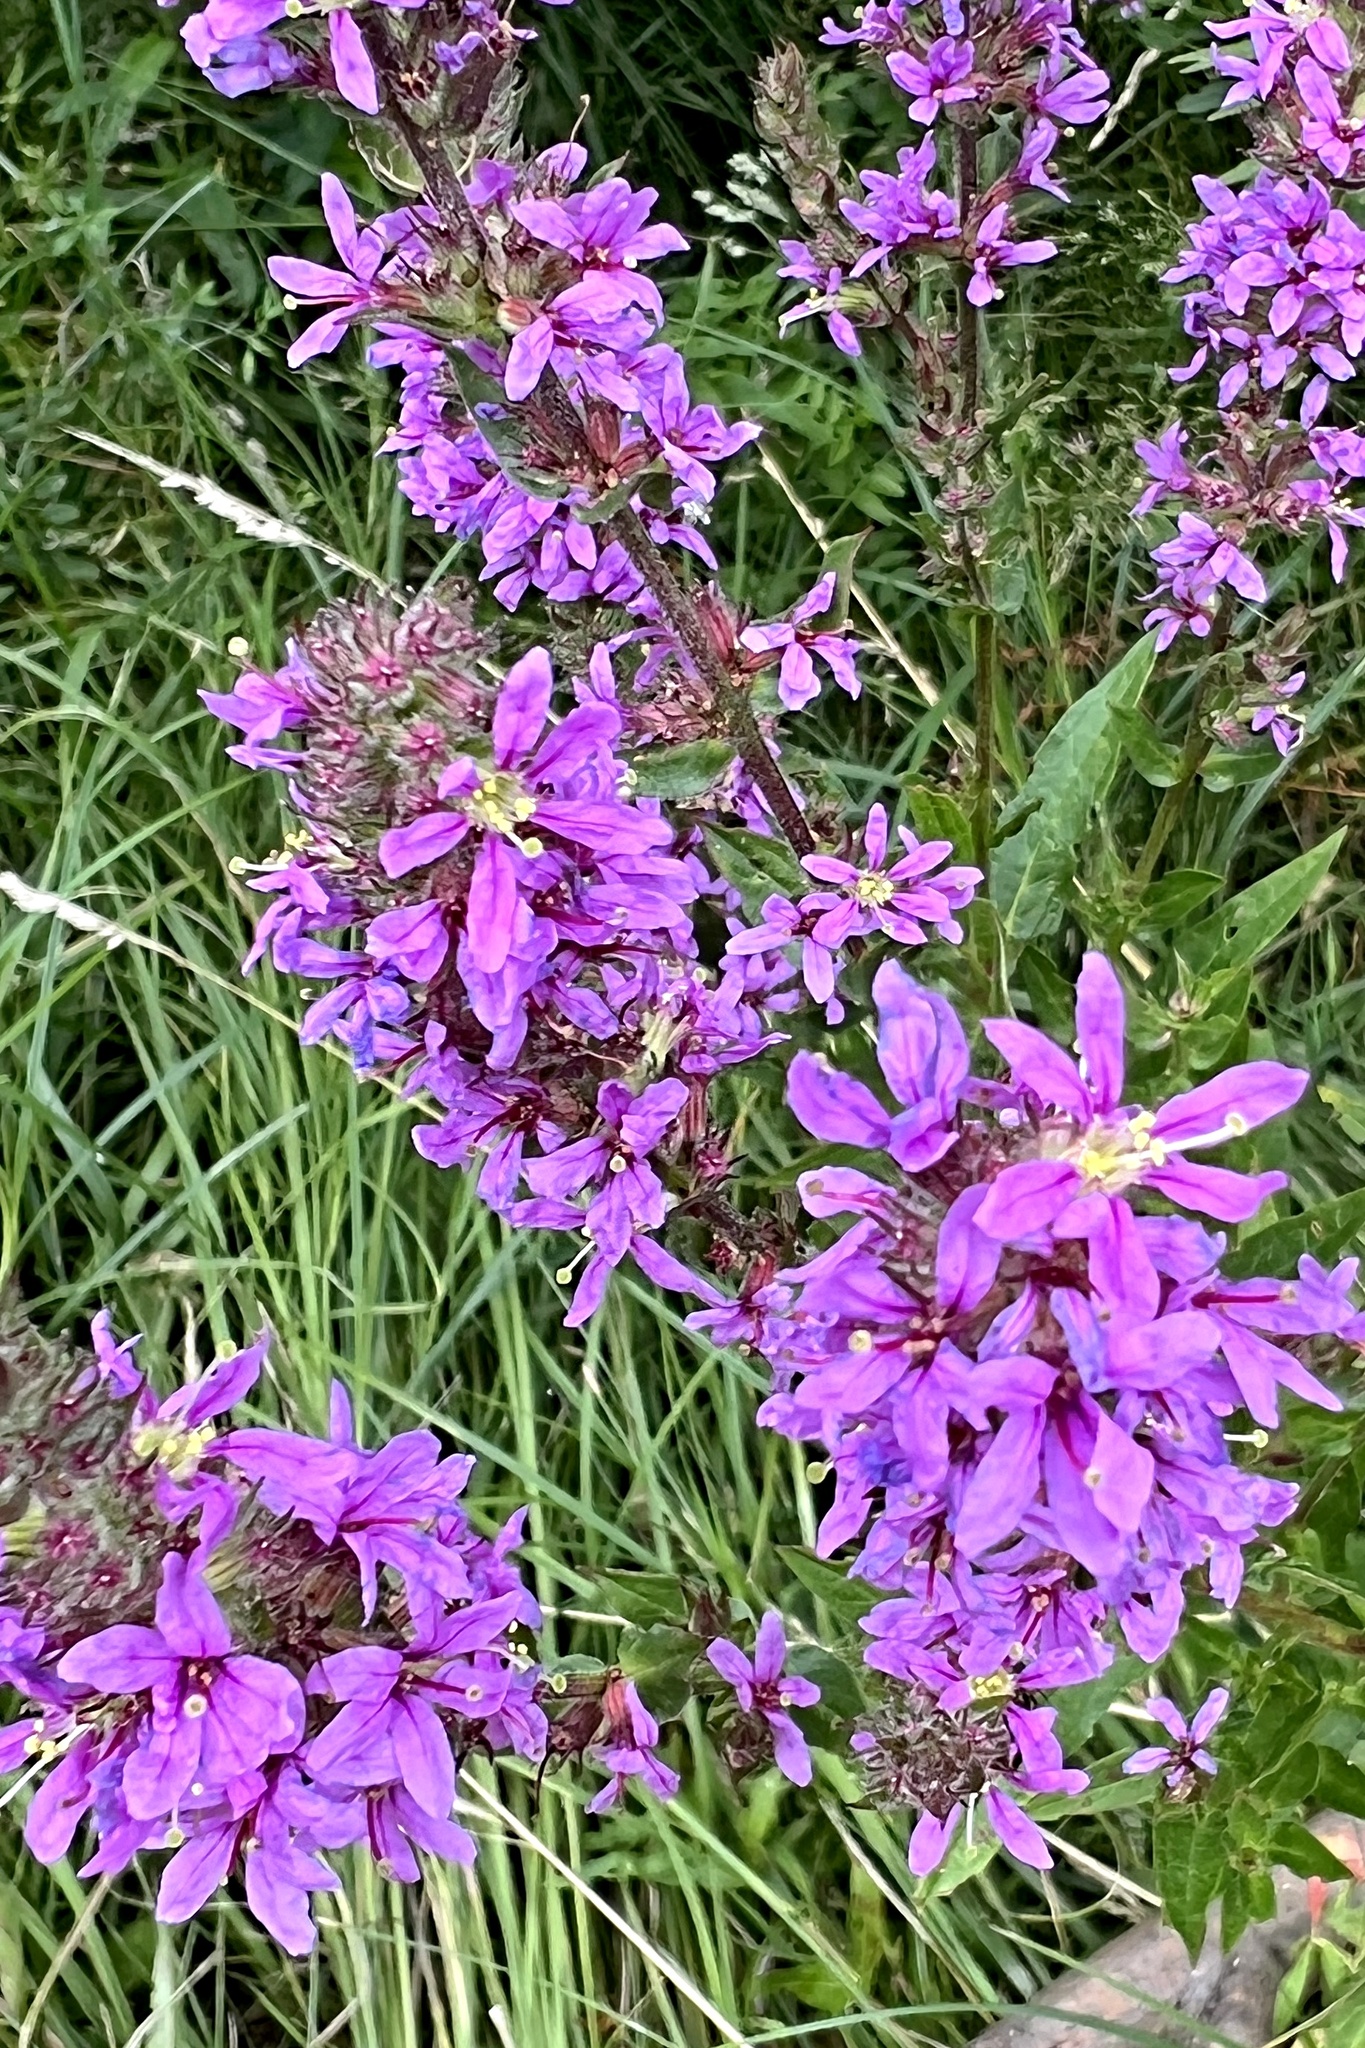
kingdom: Plantae
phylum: Tracheophyta
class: Magnoliopsida
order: Myrtales
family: Lythraceae
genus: Lythrum
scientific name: Lythrum salicaria
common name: Purple loosestrife
